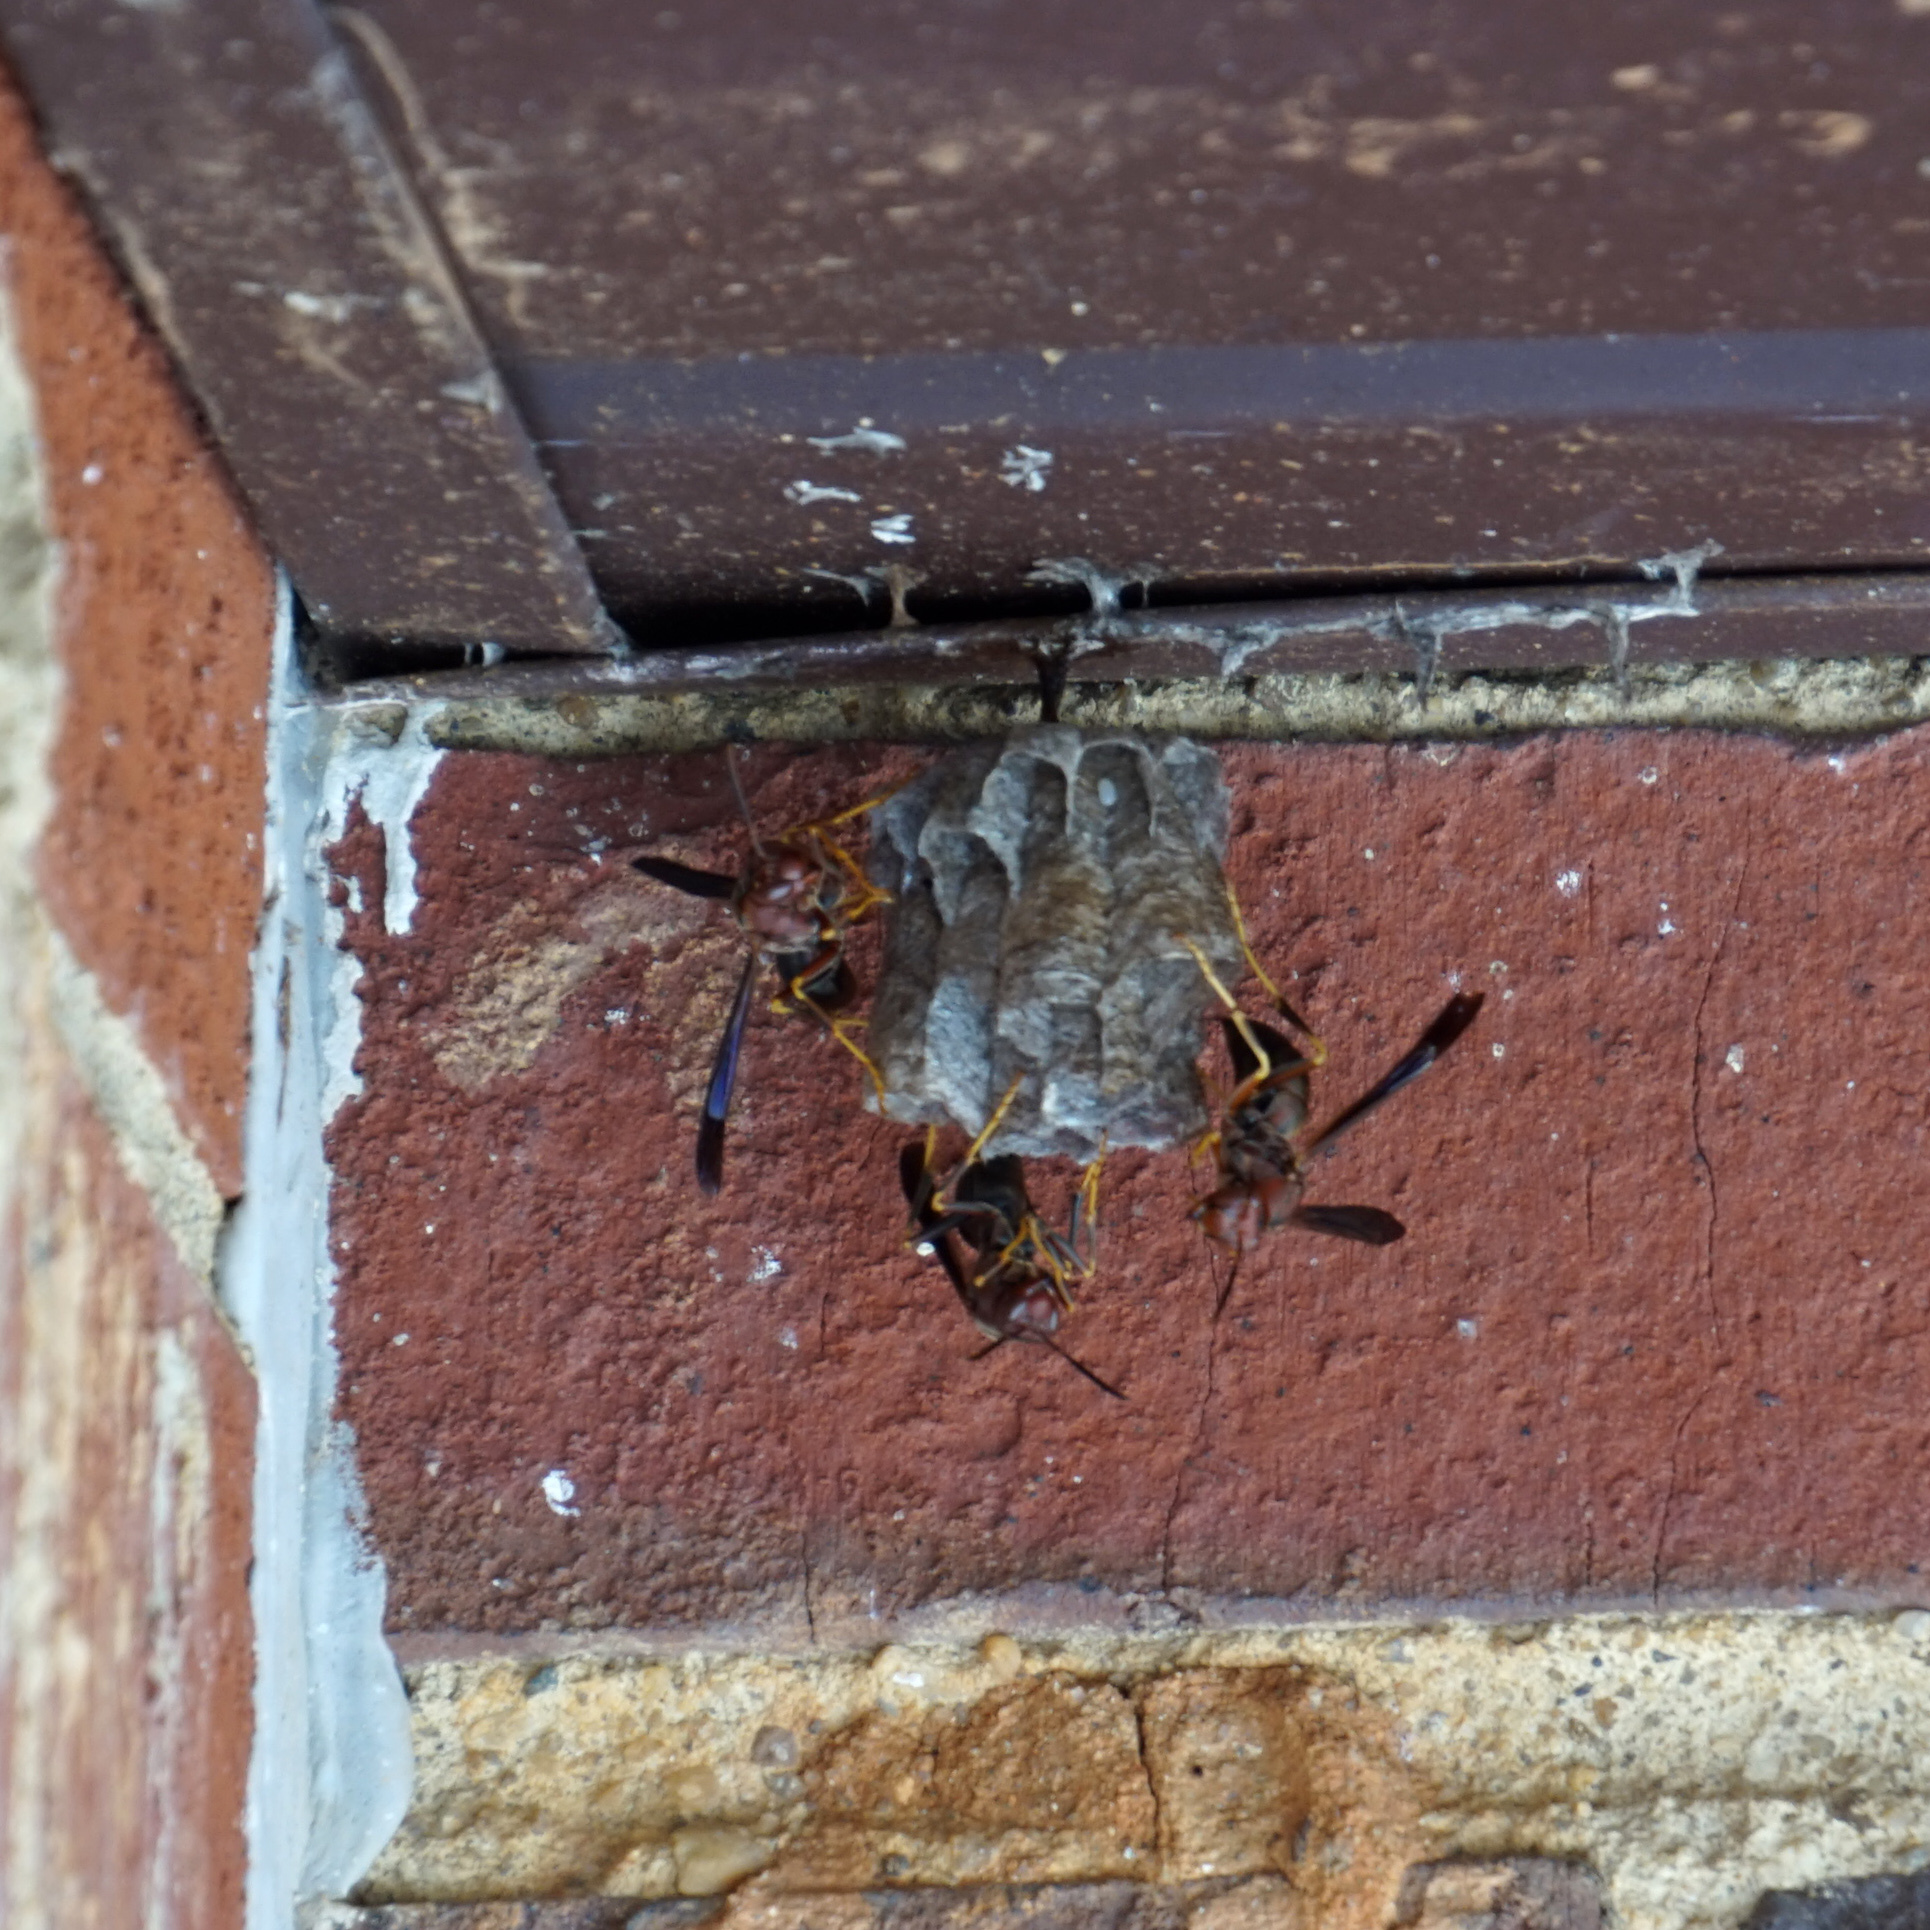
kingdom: Animalia
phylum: Arthropoda
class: Insecta
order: Hymenoptera
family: Eumenidae
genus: Polistes
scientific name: Polistes metricus
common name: Metric paper wasp
